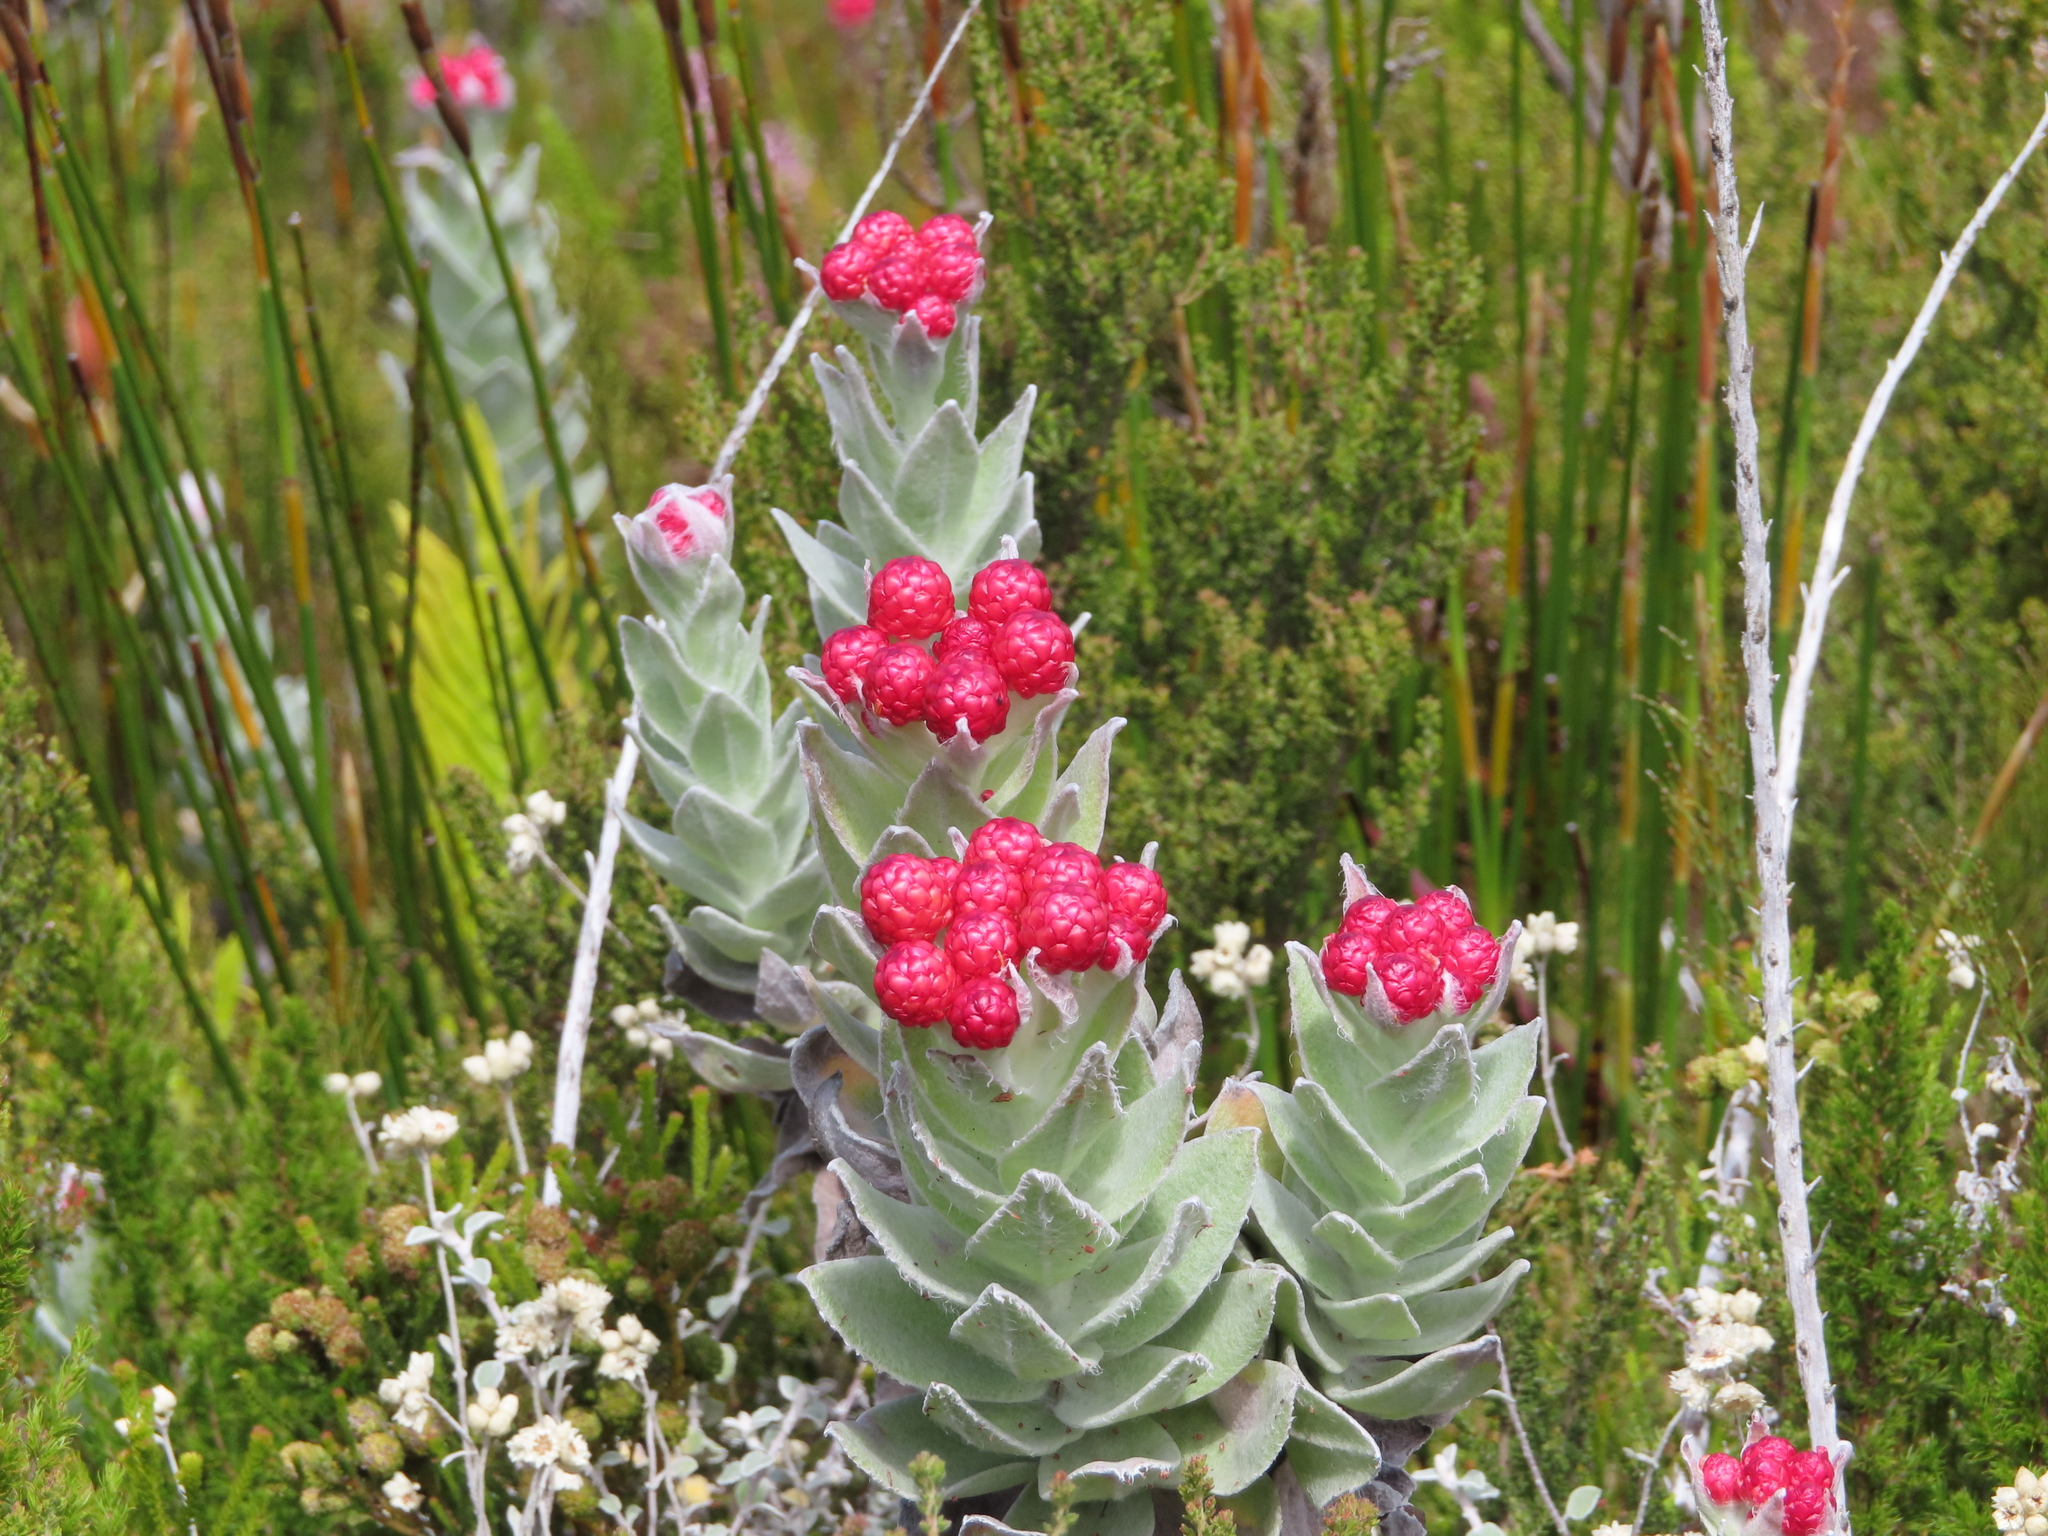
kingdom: Plantae
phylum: Tracheophyta
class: Magnoliopsida
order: Asterales
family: Asteraceae
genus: Syncarpha
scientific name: Syncarpha eximia
